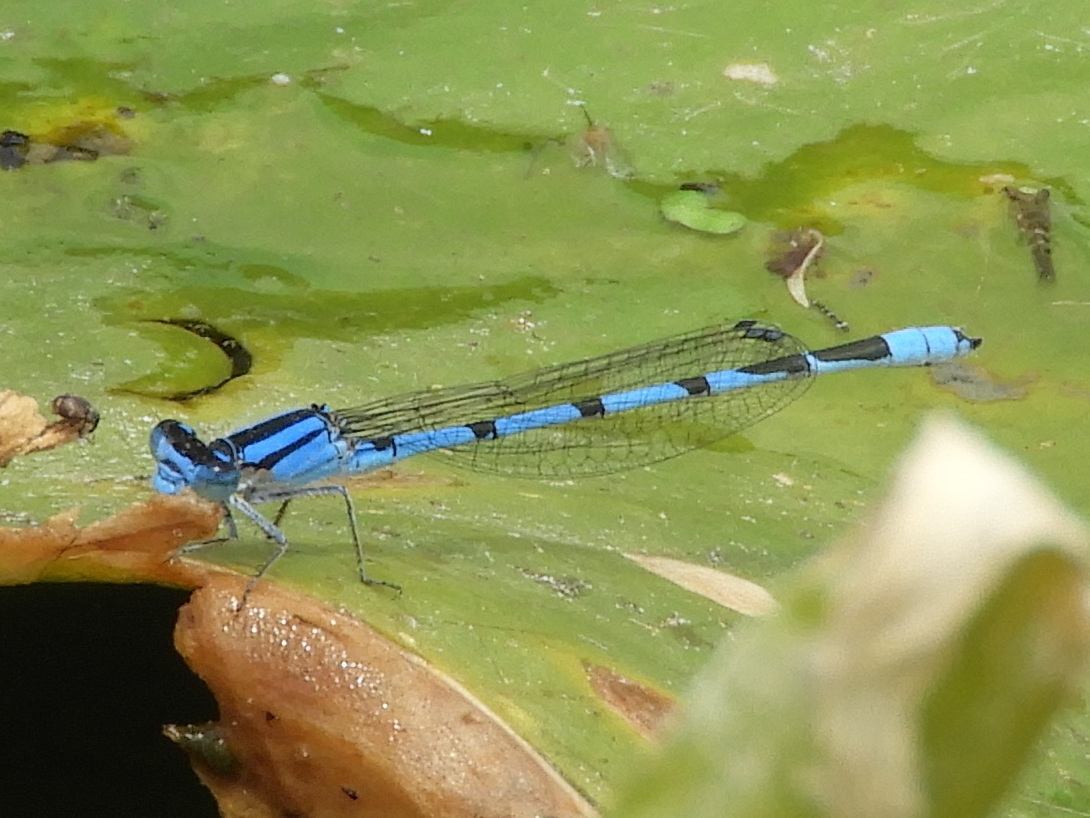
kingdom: Animalia
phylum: Arthropoda
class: Insecta
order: Odonata
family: Coenagrionidae
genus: Enallagma
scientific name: Enallagma civile
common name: Damselfly
